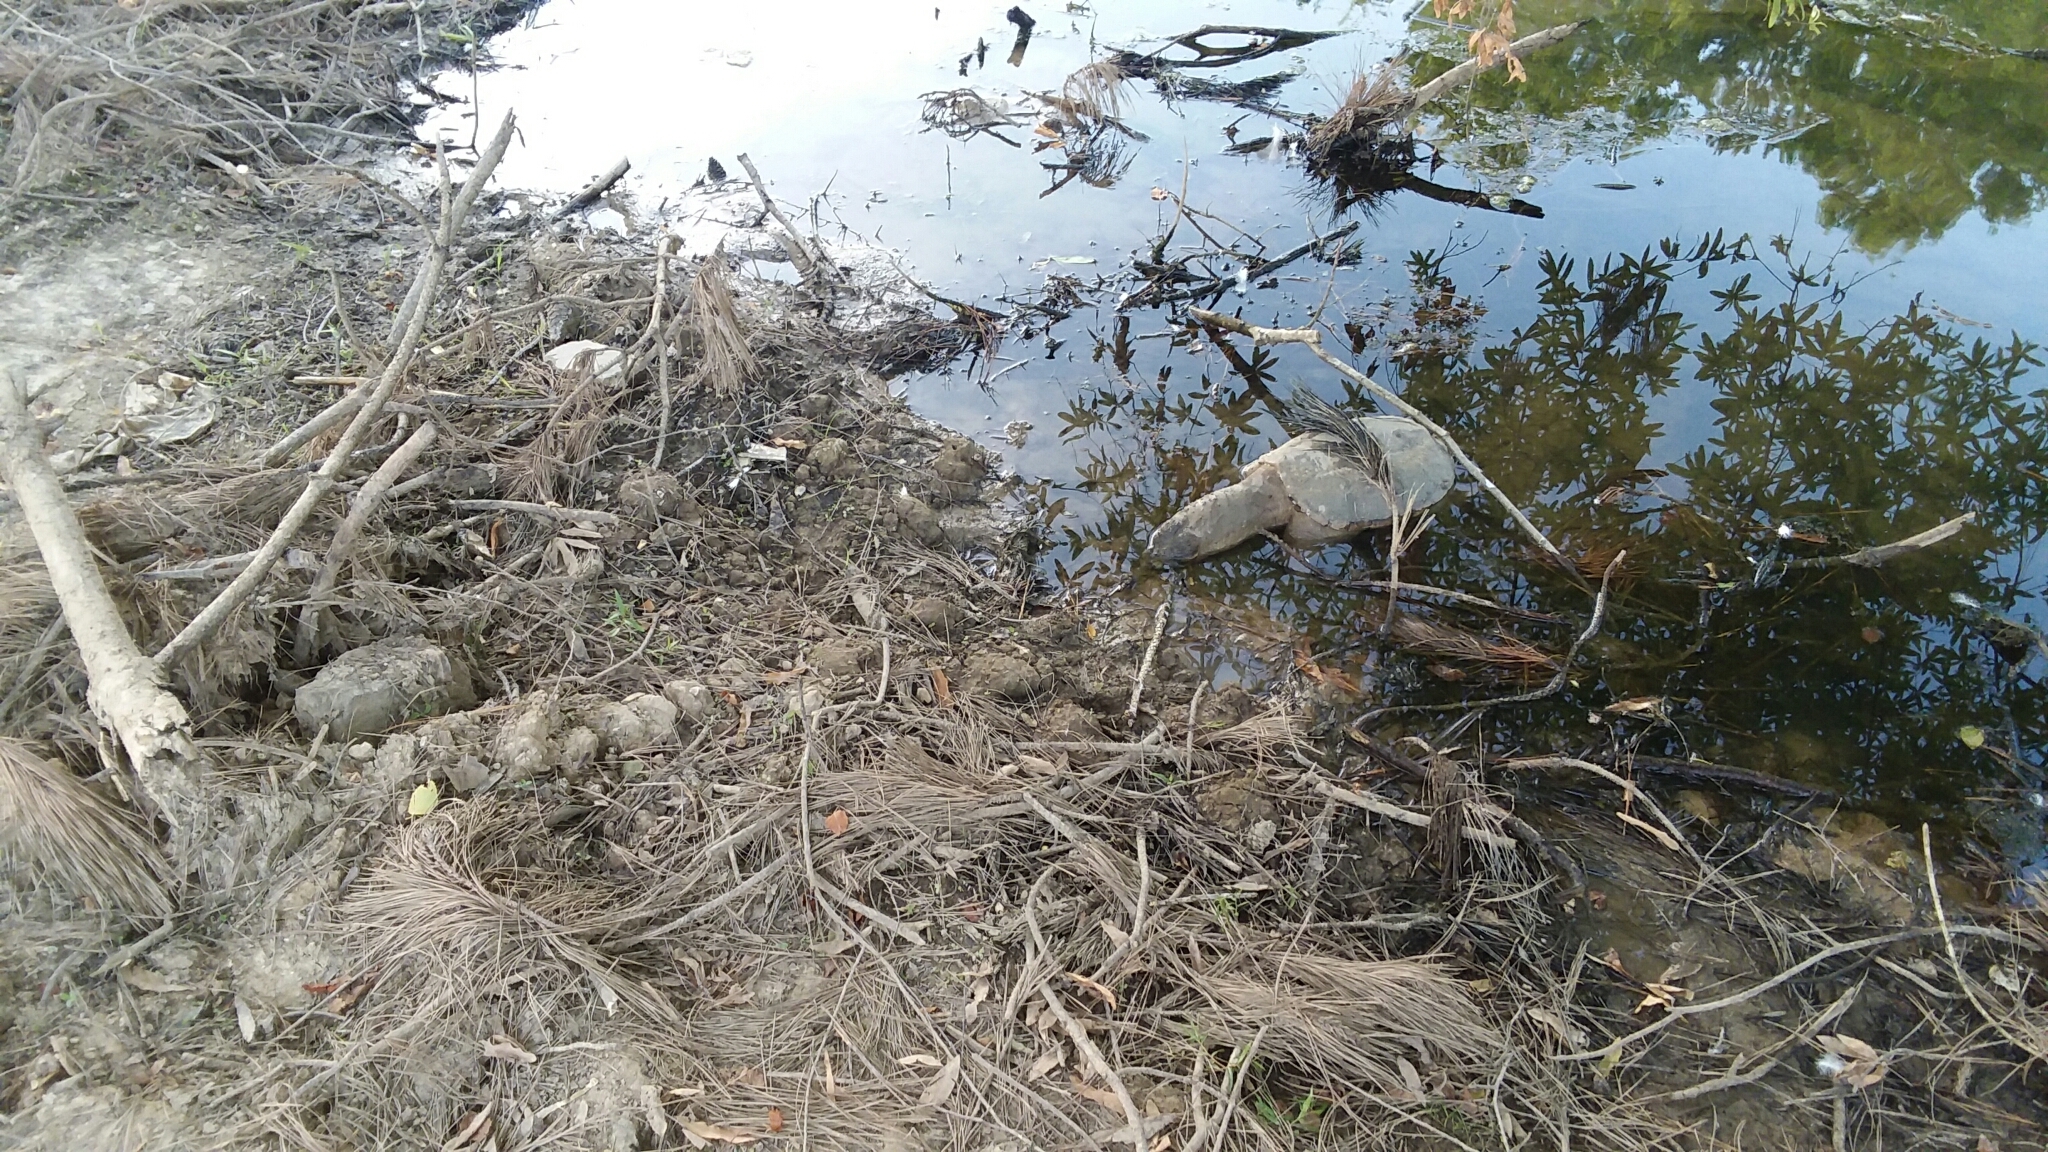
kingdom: Animalia
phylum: Chordata
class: Testudines
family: Chelydridae
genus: Chelydra
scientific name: Chelydra serpentina
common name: Common snapping turtle
